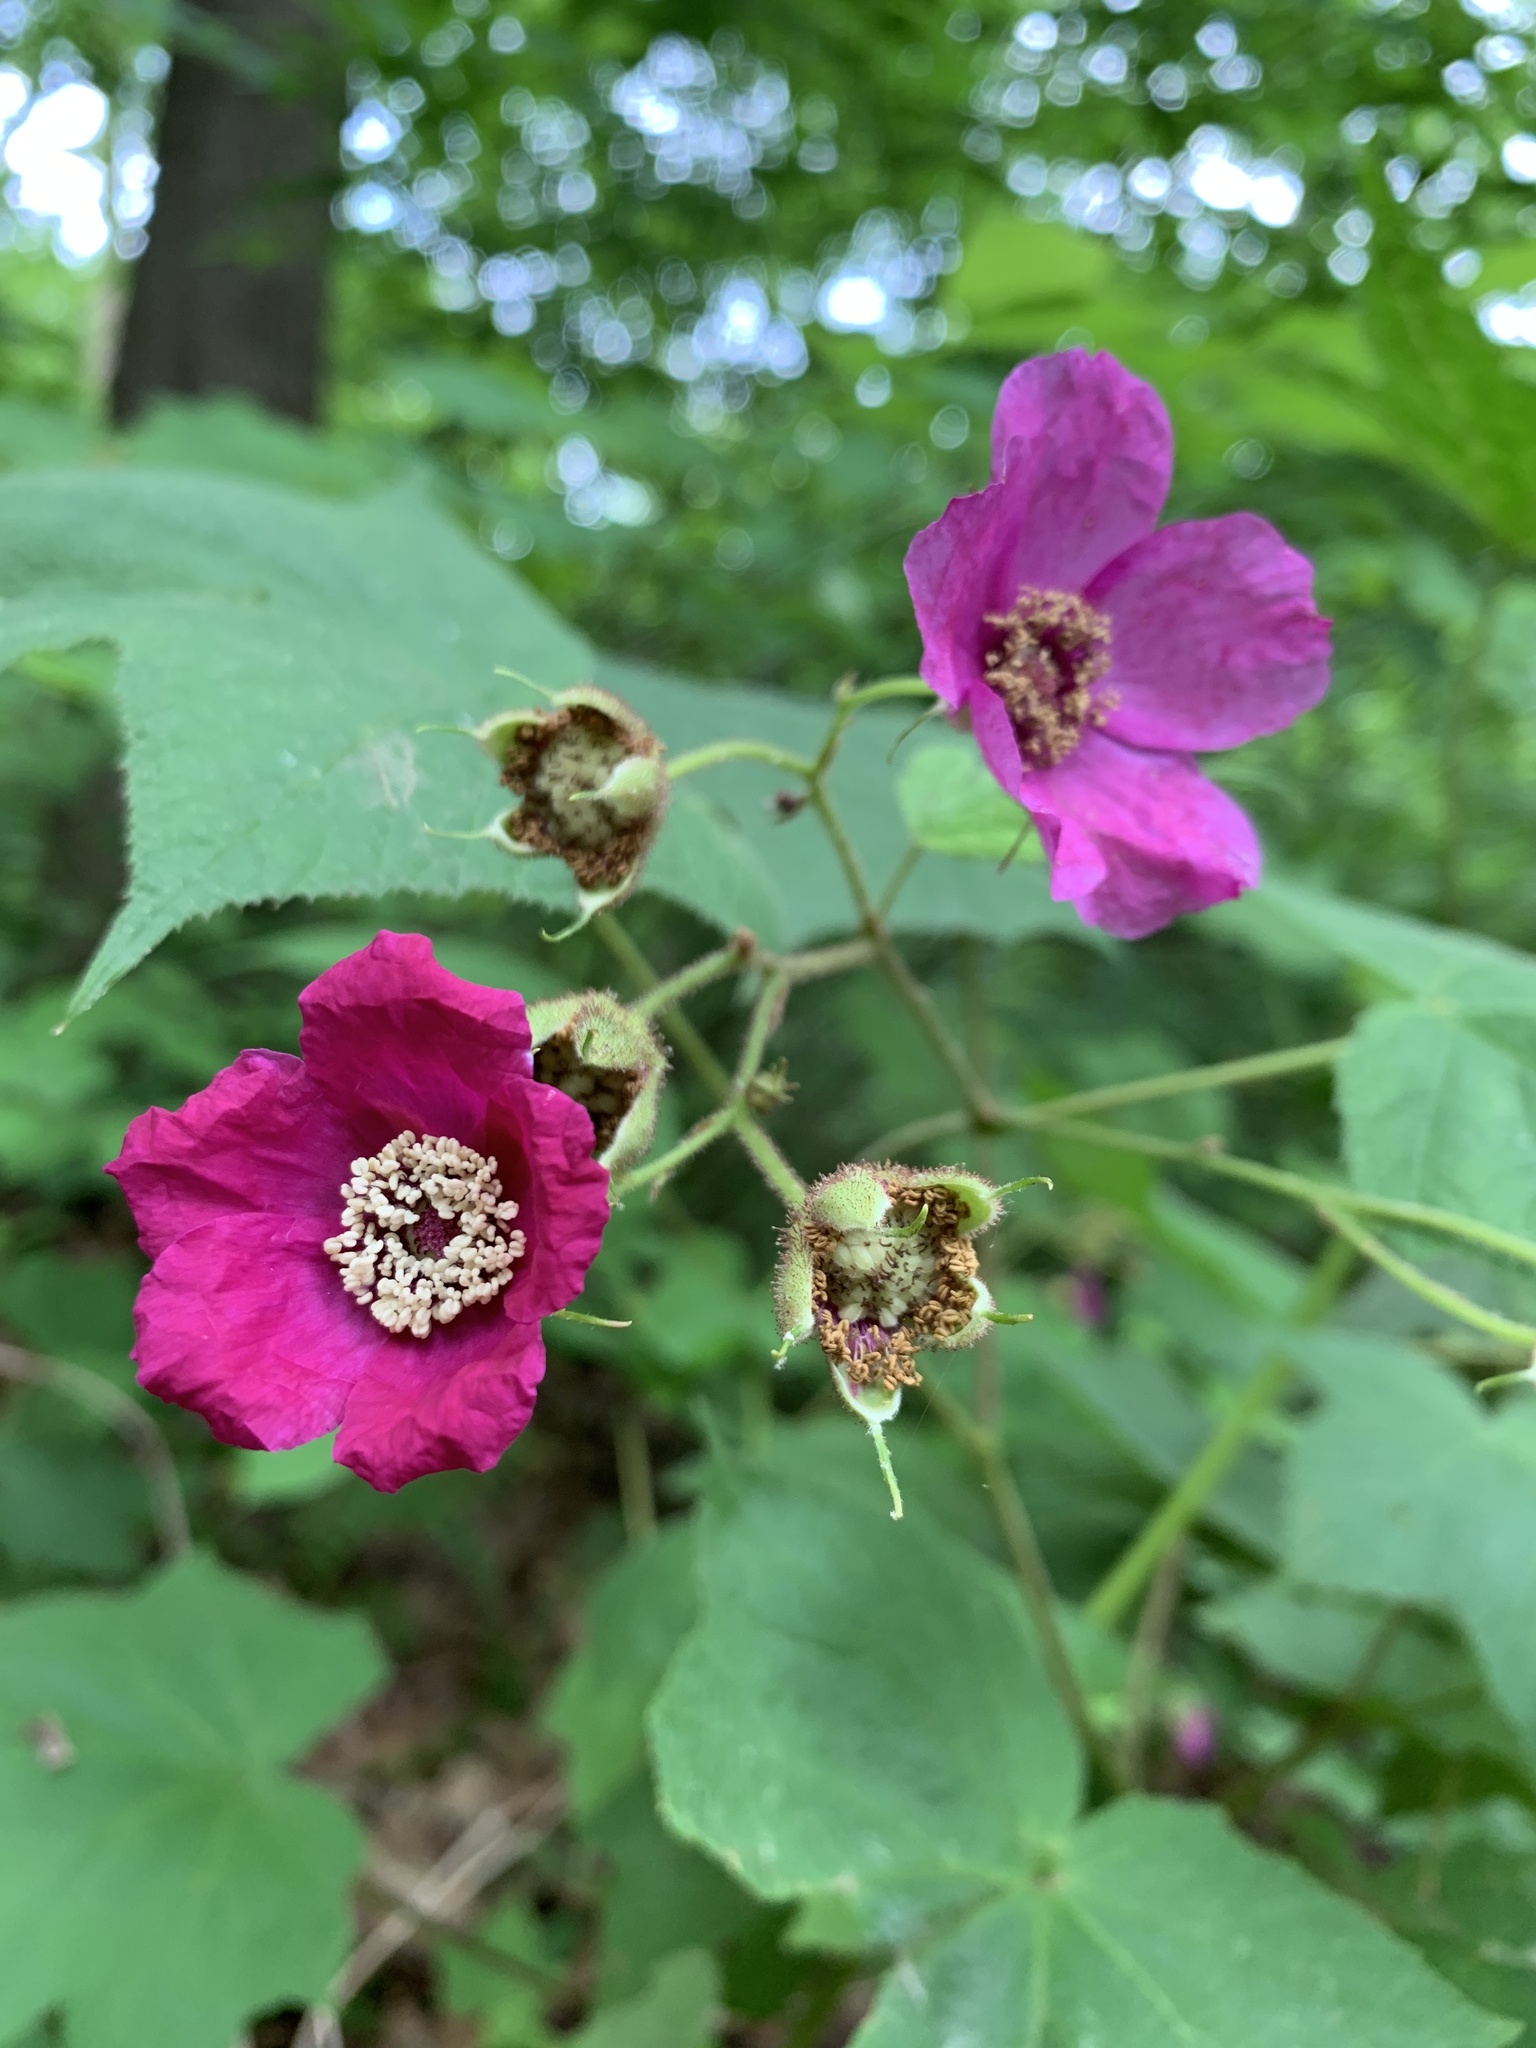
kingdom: Plantae
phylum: Tracheophyta
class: Magnoliopsida
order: Rosales
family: Rosaceae
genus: Rubus
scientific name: Rubus odoratus
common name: Purple-flowered raspberry
